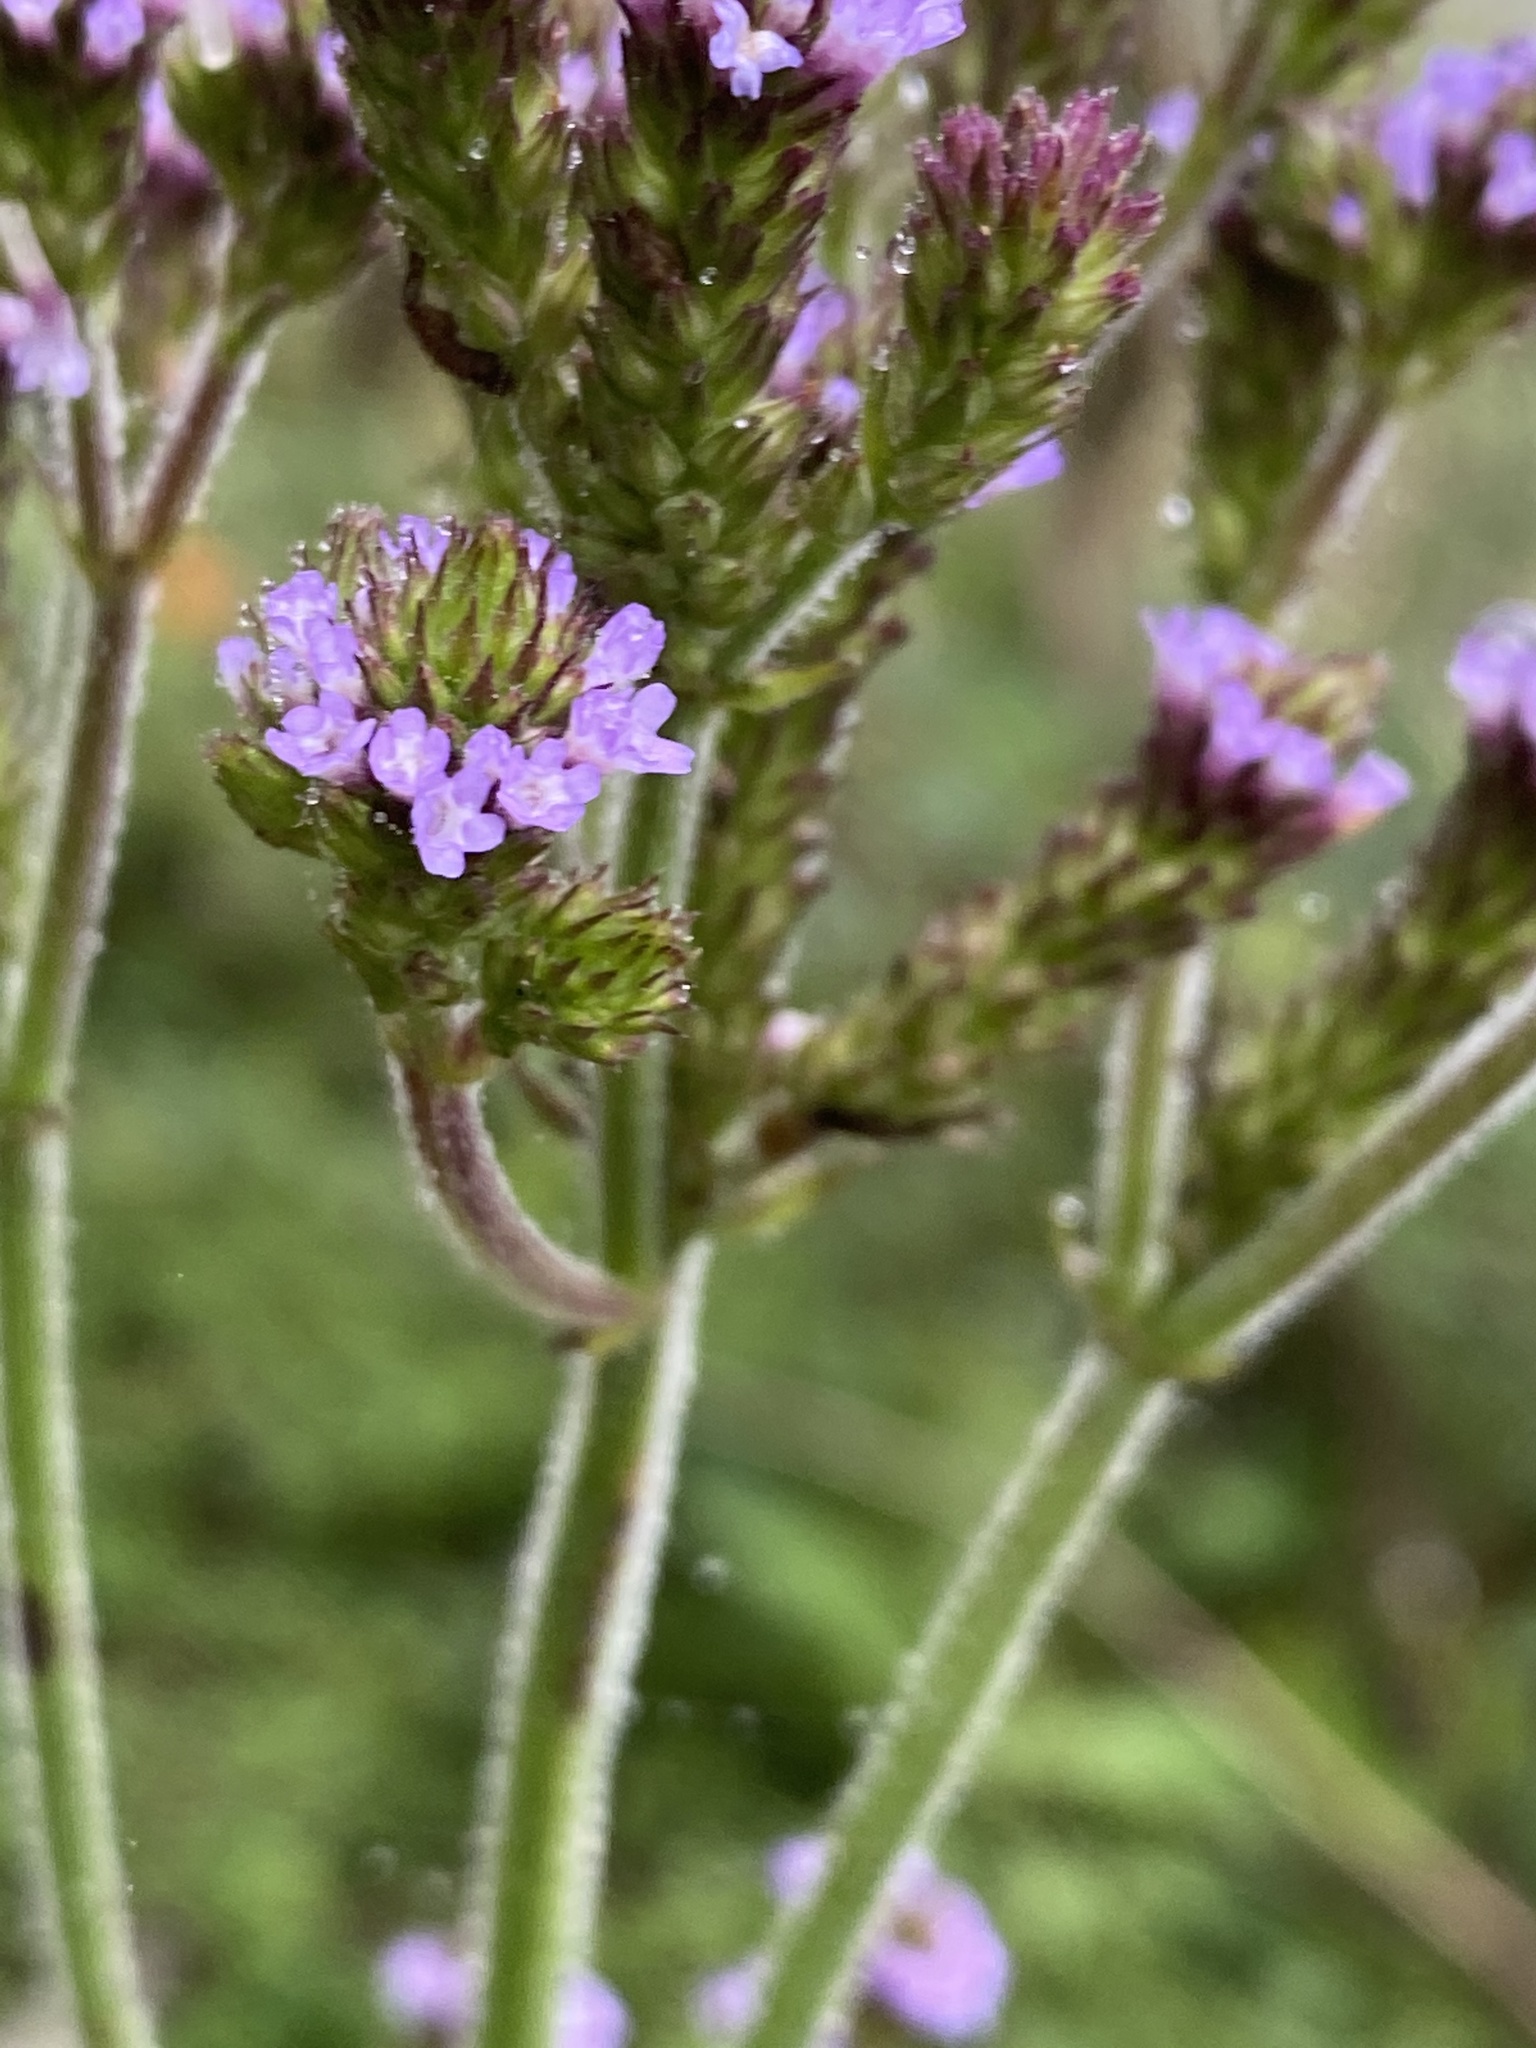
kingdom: Plantae
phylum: Tracheophyta
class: Magnoliopsida
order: Lamiales
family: Verbenaceae
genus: Verbena
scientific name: Verbena bonariensis
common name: Purpletop vervain
